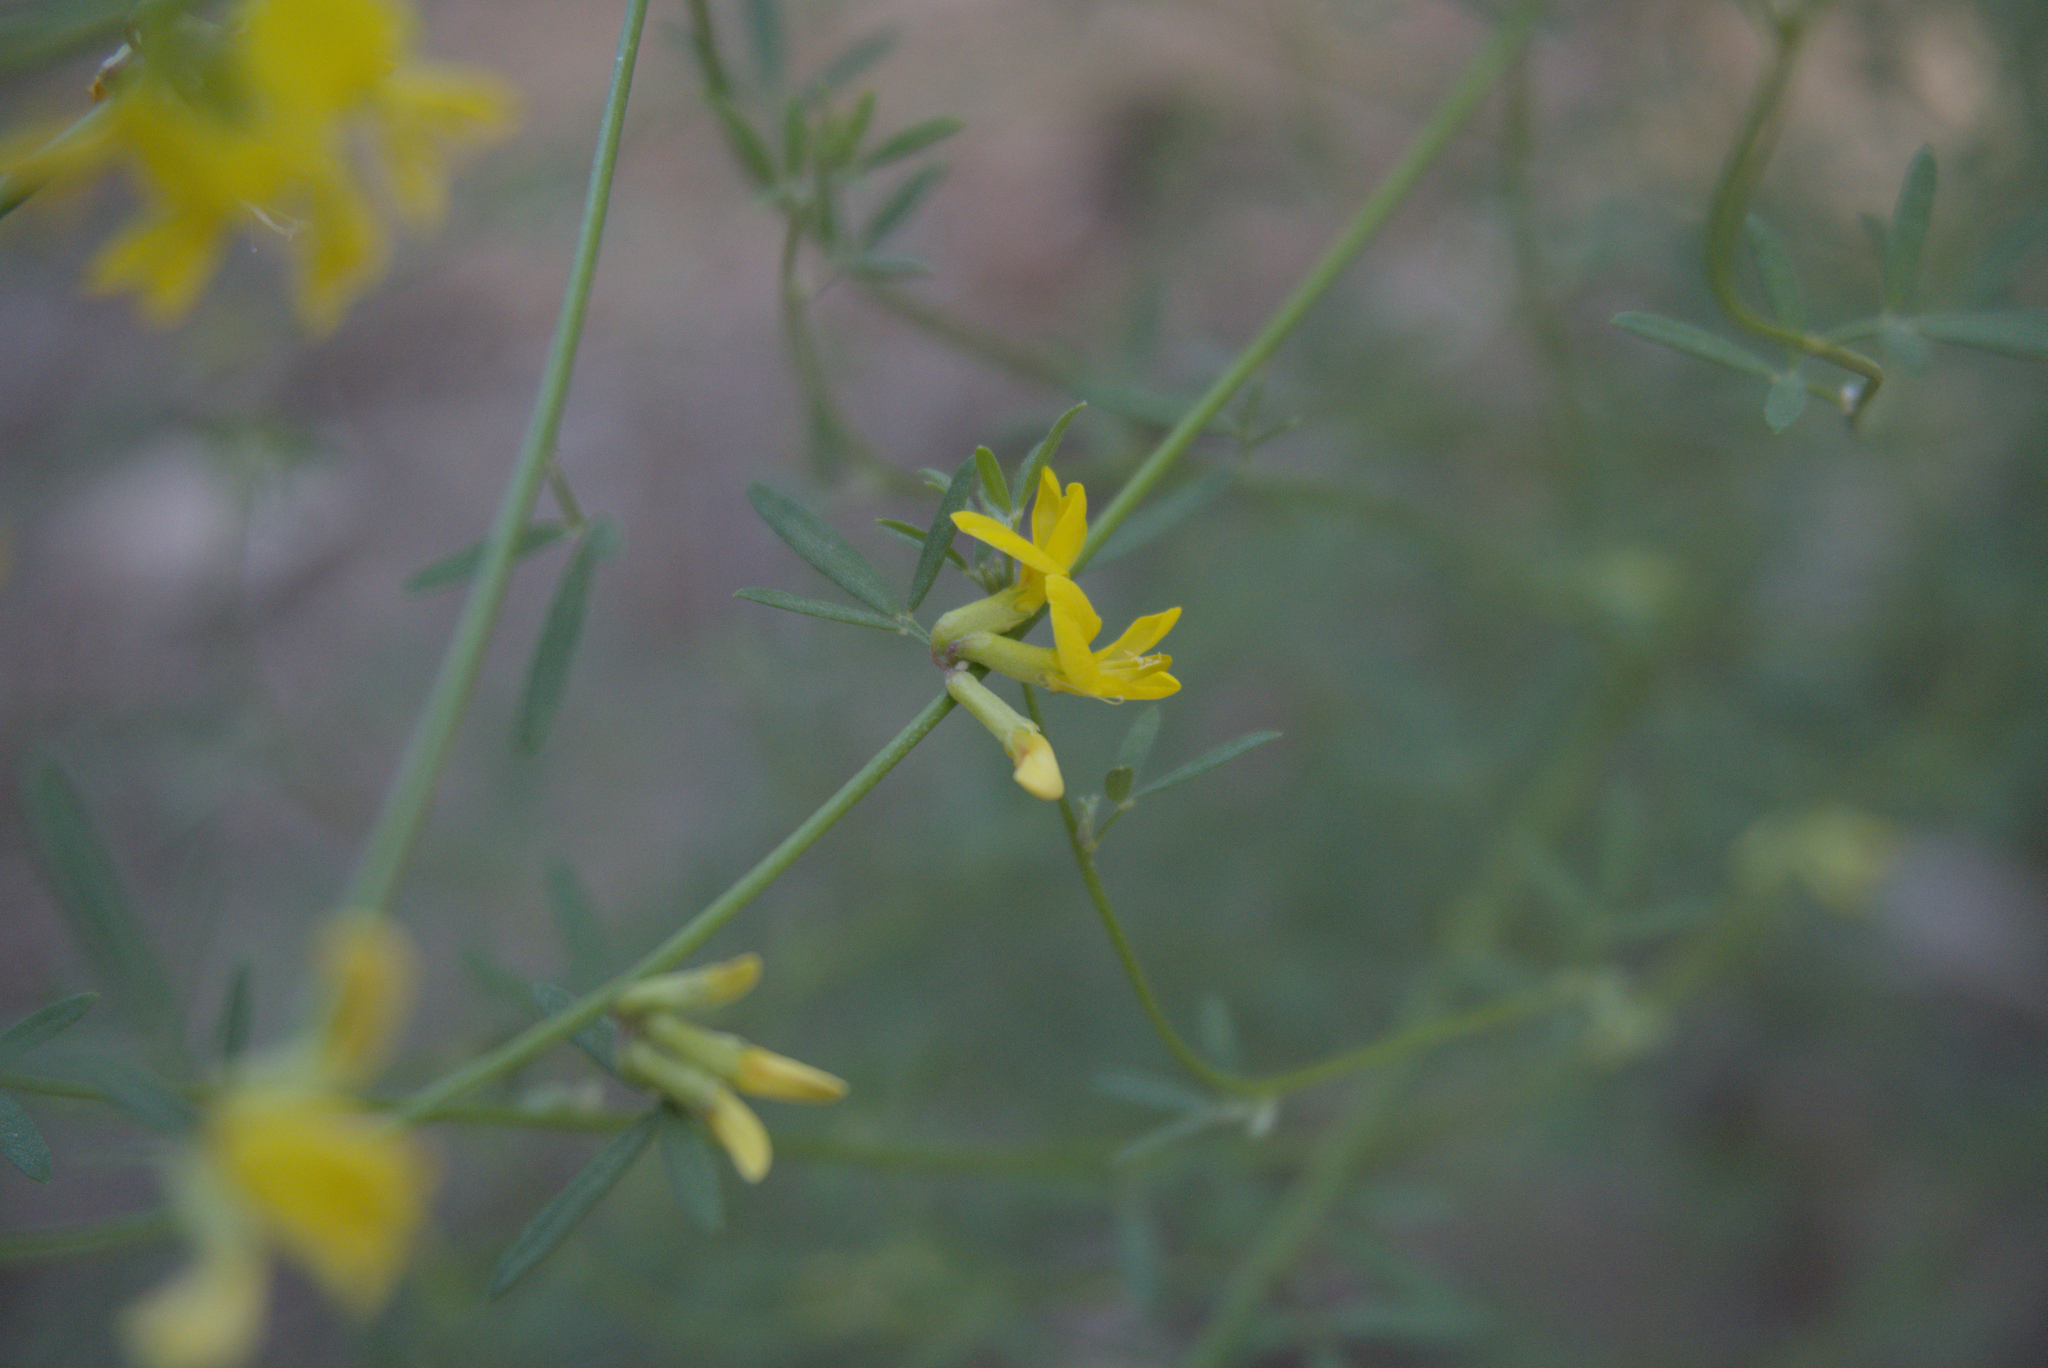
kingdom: Plantae
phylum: Tracheophyta
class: Magnoliopsida
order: Fabales
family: Fabaceae
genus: Acmispon
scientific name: Acmispon glaber
